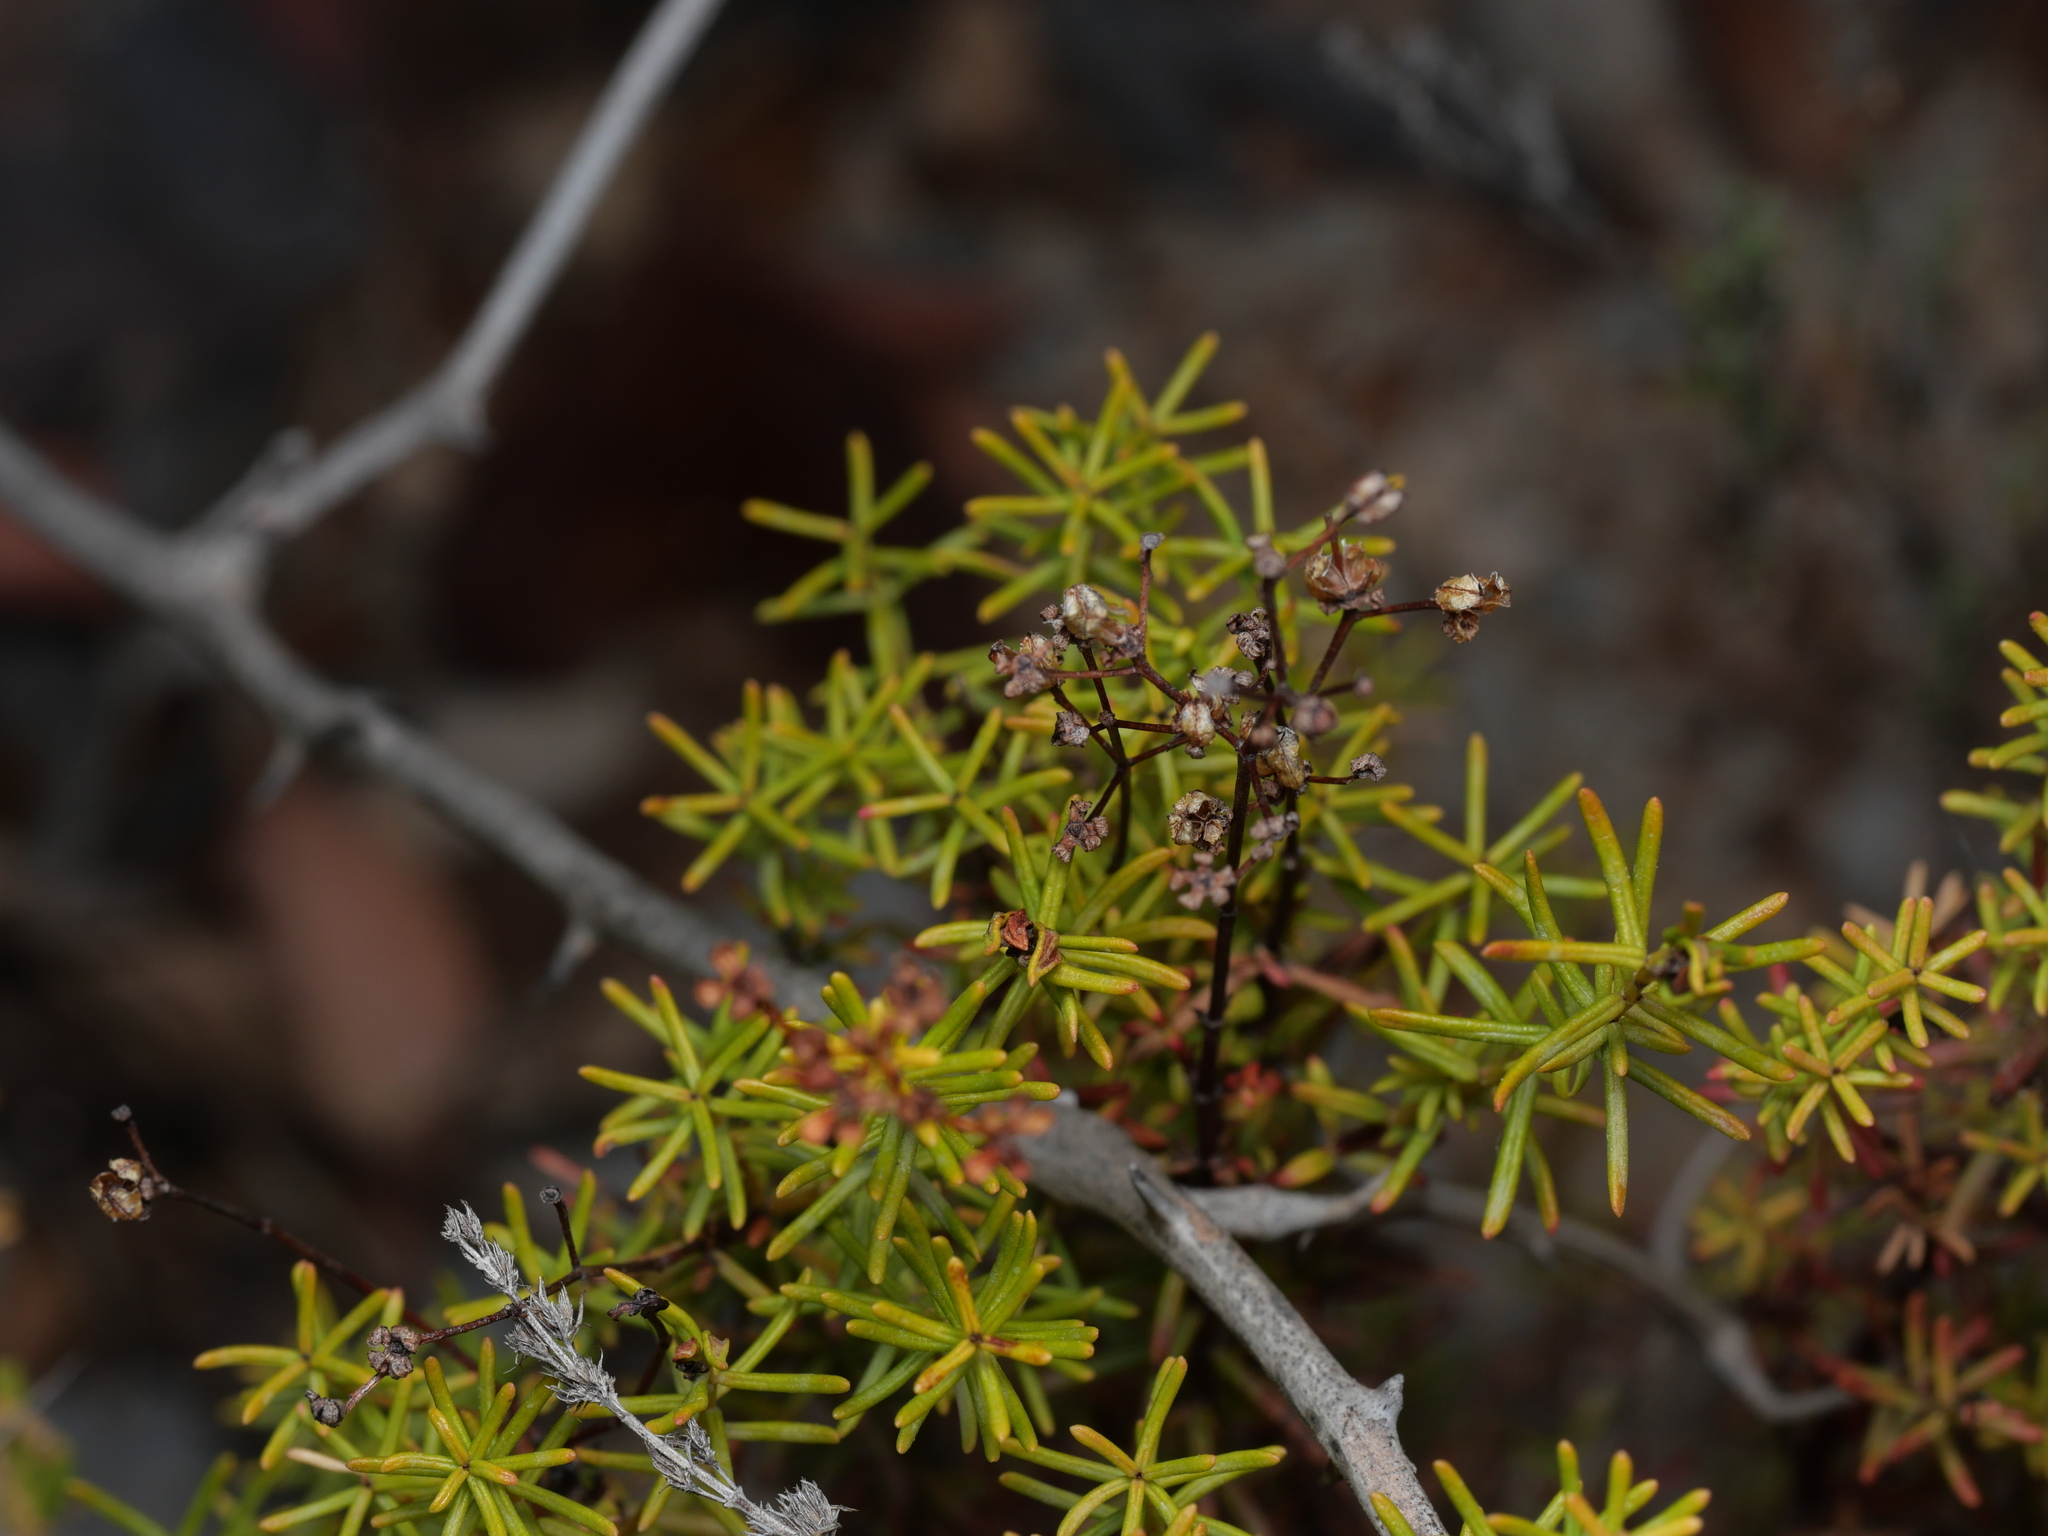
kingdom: Plantae
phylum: Tracheophyta
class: Magnoliopsida
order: Malpighiales
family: Hypericaceae
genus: Hypericum
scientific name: Hypericum empetrifolium
